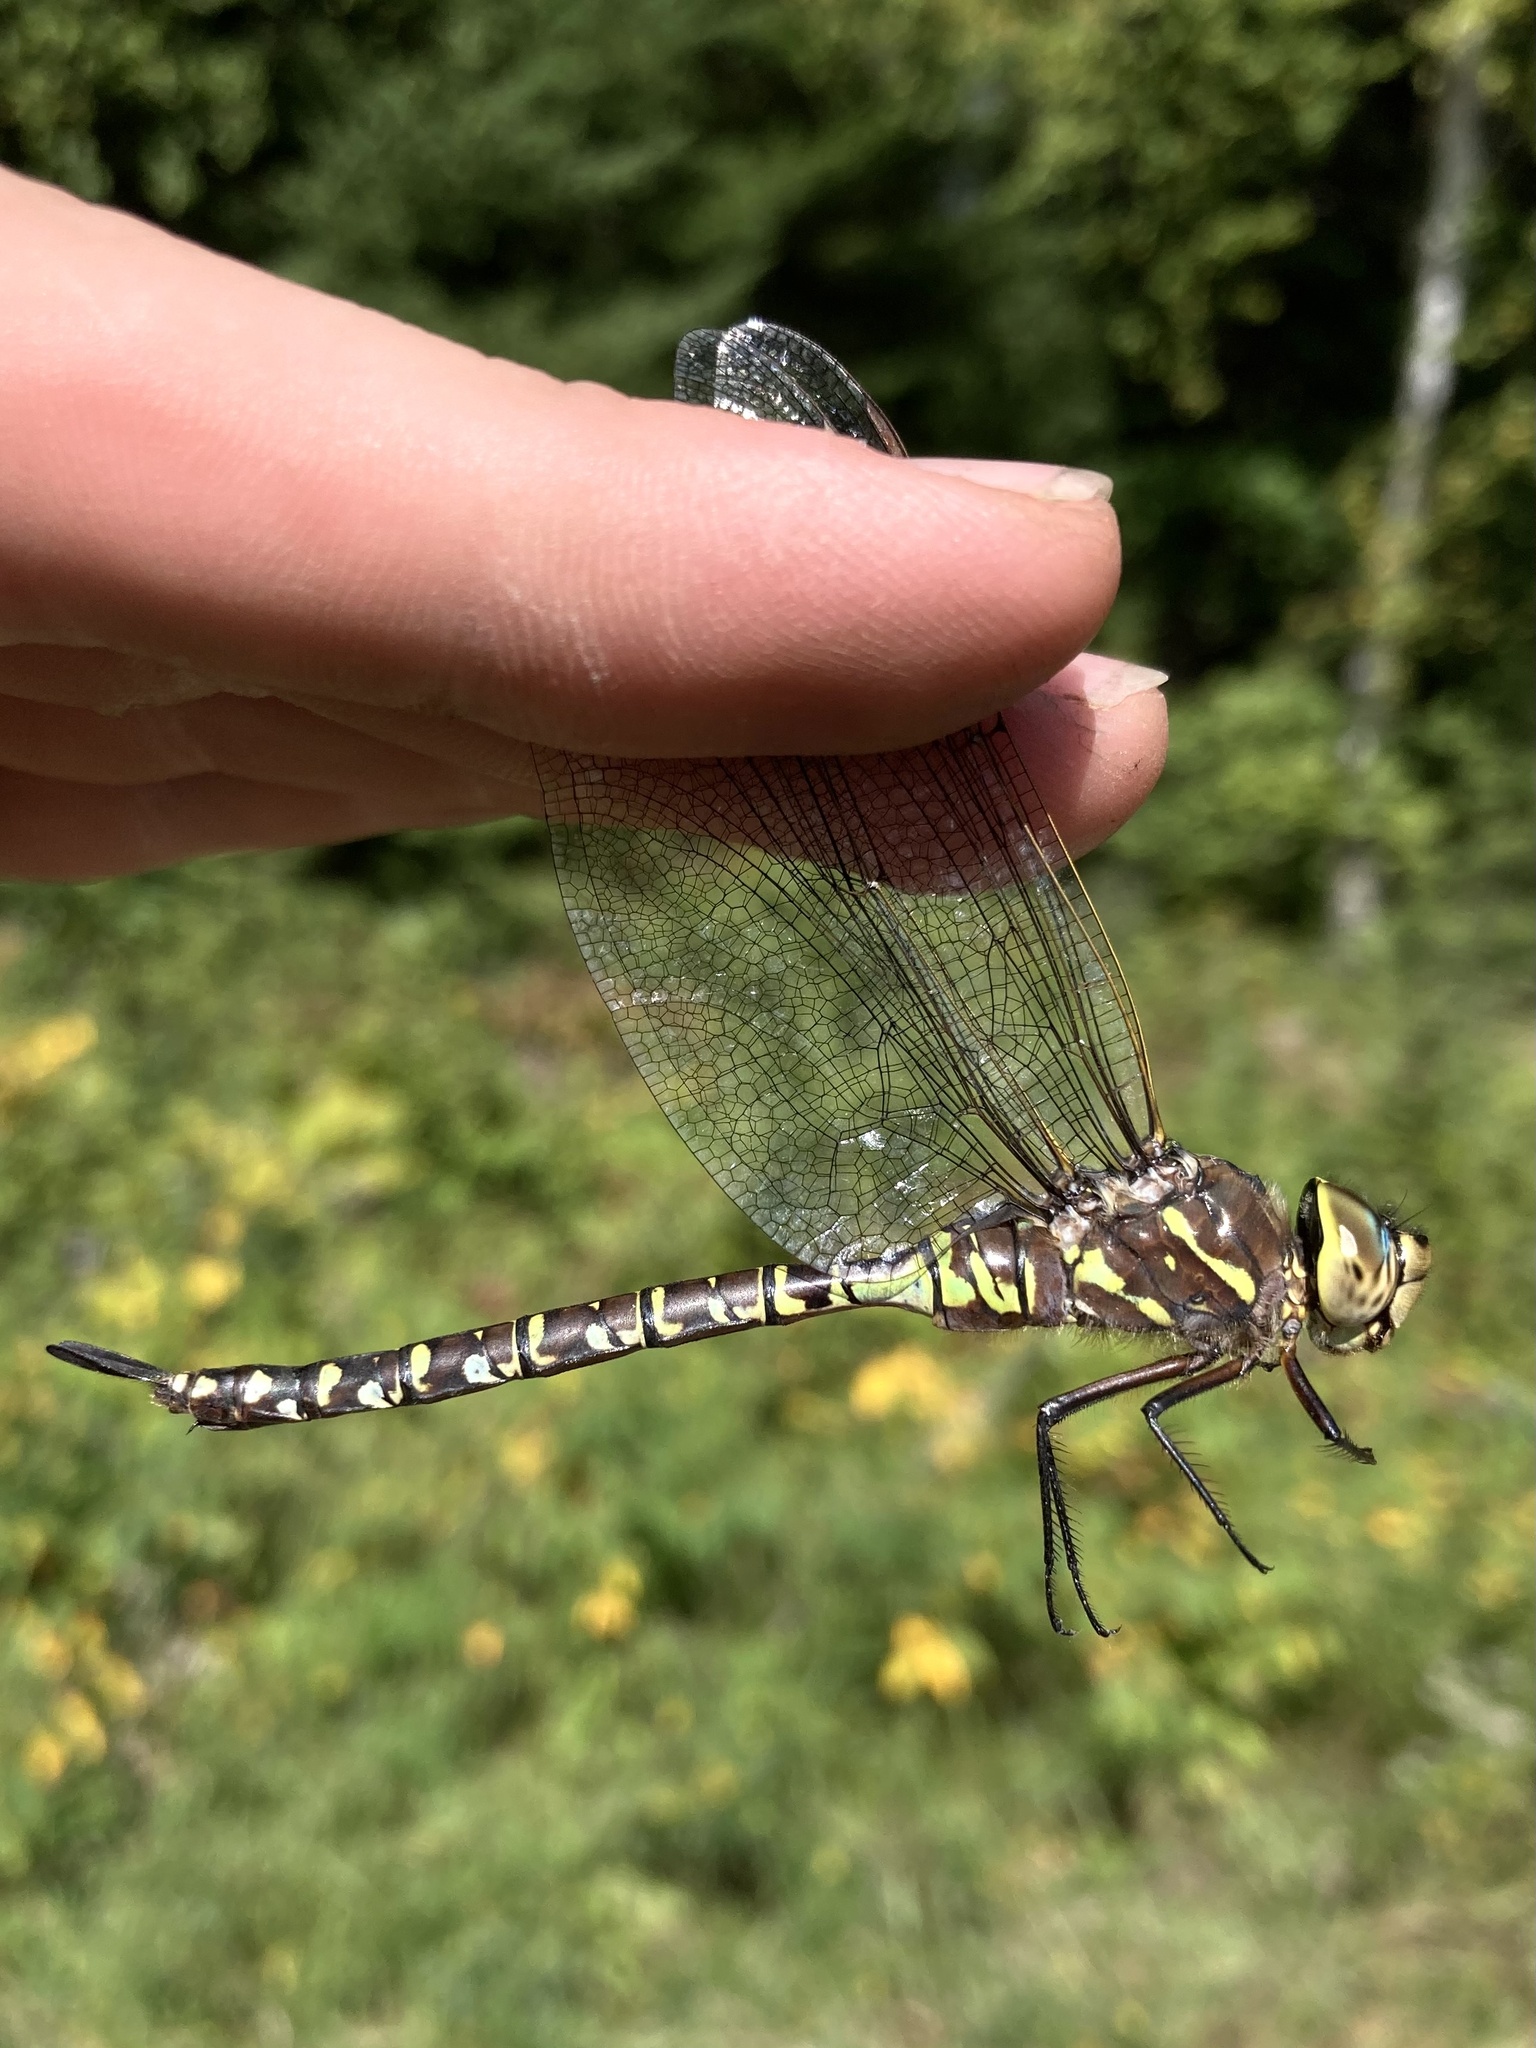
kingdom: Animalia
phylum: Arthropoda
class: Insecta
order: Odonata
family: Aeshnidae
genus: Aeshna
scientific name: Aeshna interrupta
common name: Variable darner
